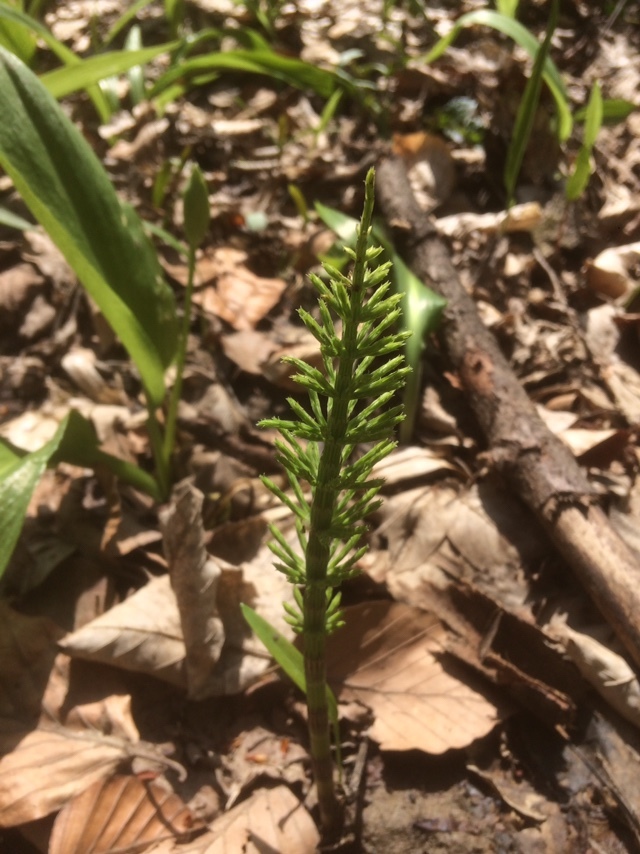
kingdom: Plantae
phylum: Tracheophyta
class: Polypodiopsida
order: Equisetales
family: Equisetaceae
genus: Equisetum
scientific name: Equisetum arvense
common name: Field horsetail
